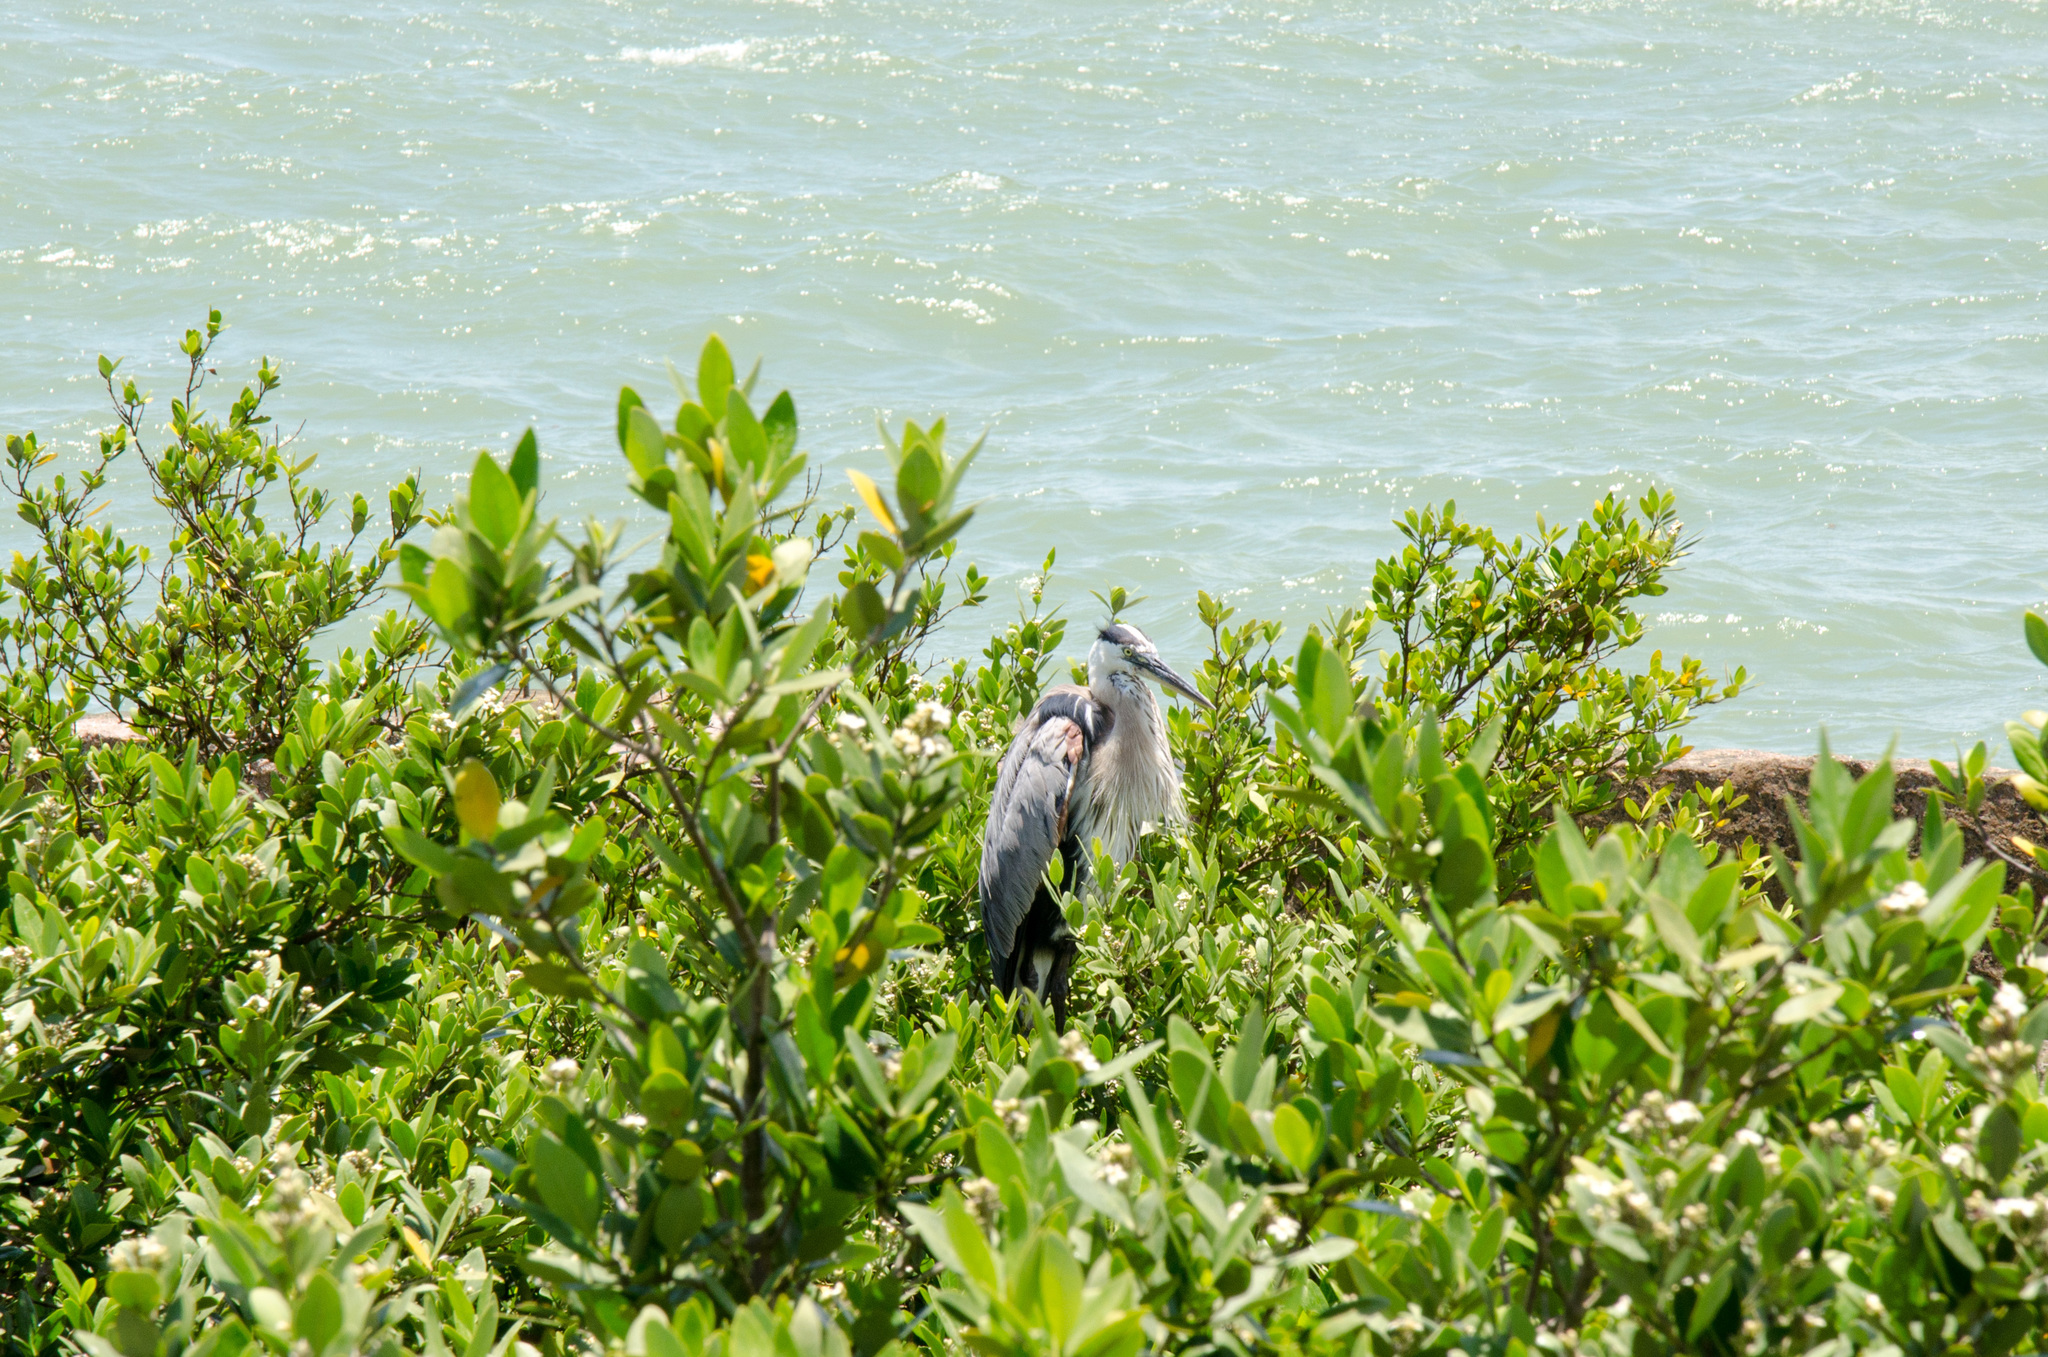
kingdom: Animalia
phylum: Chordata
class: Aves
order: Pelecaniformes
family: Ardeidae
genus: Ardea
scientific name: Ardea herodias
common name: Great blue heron
